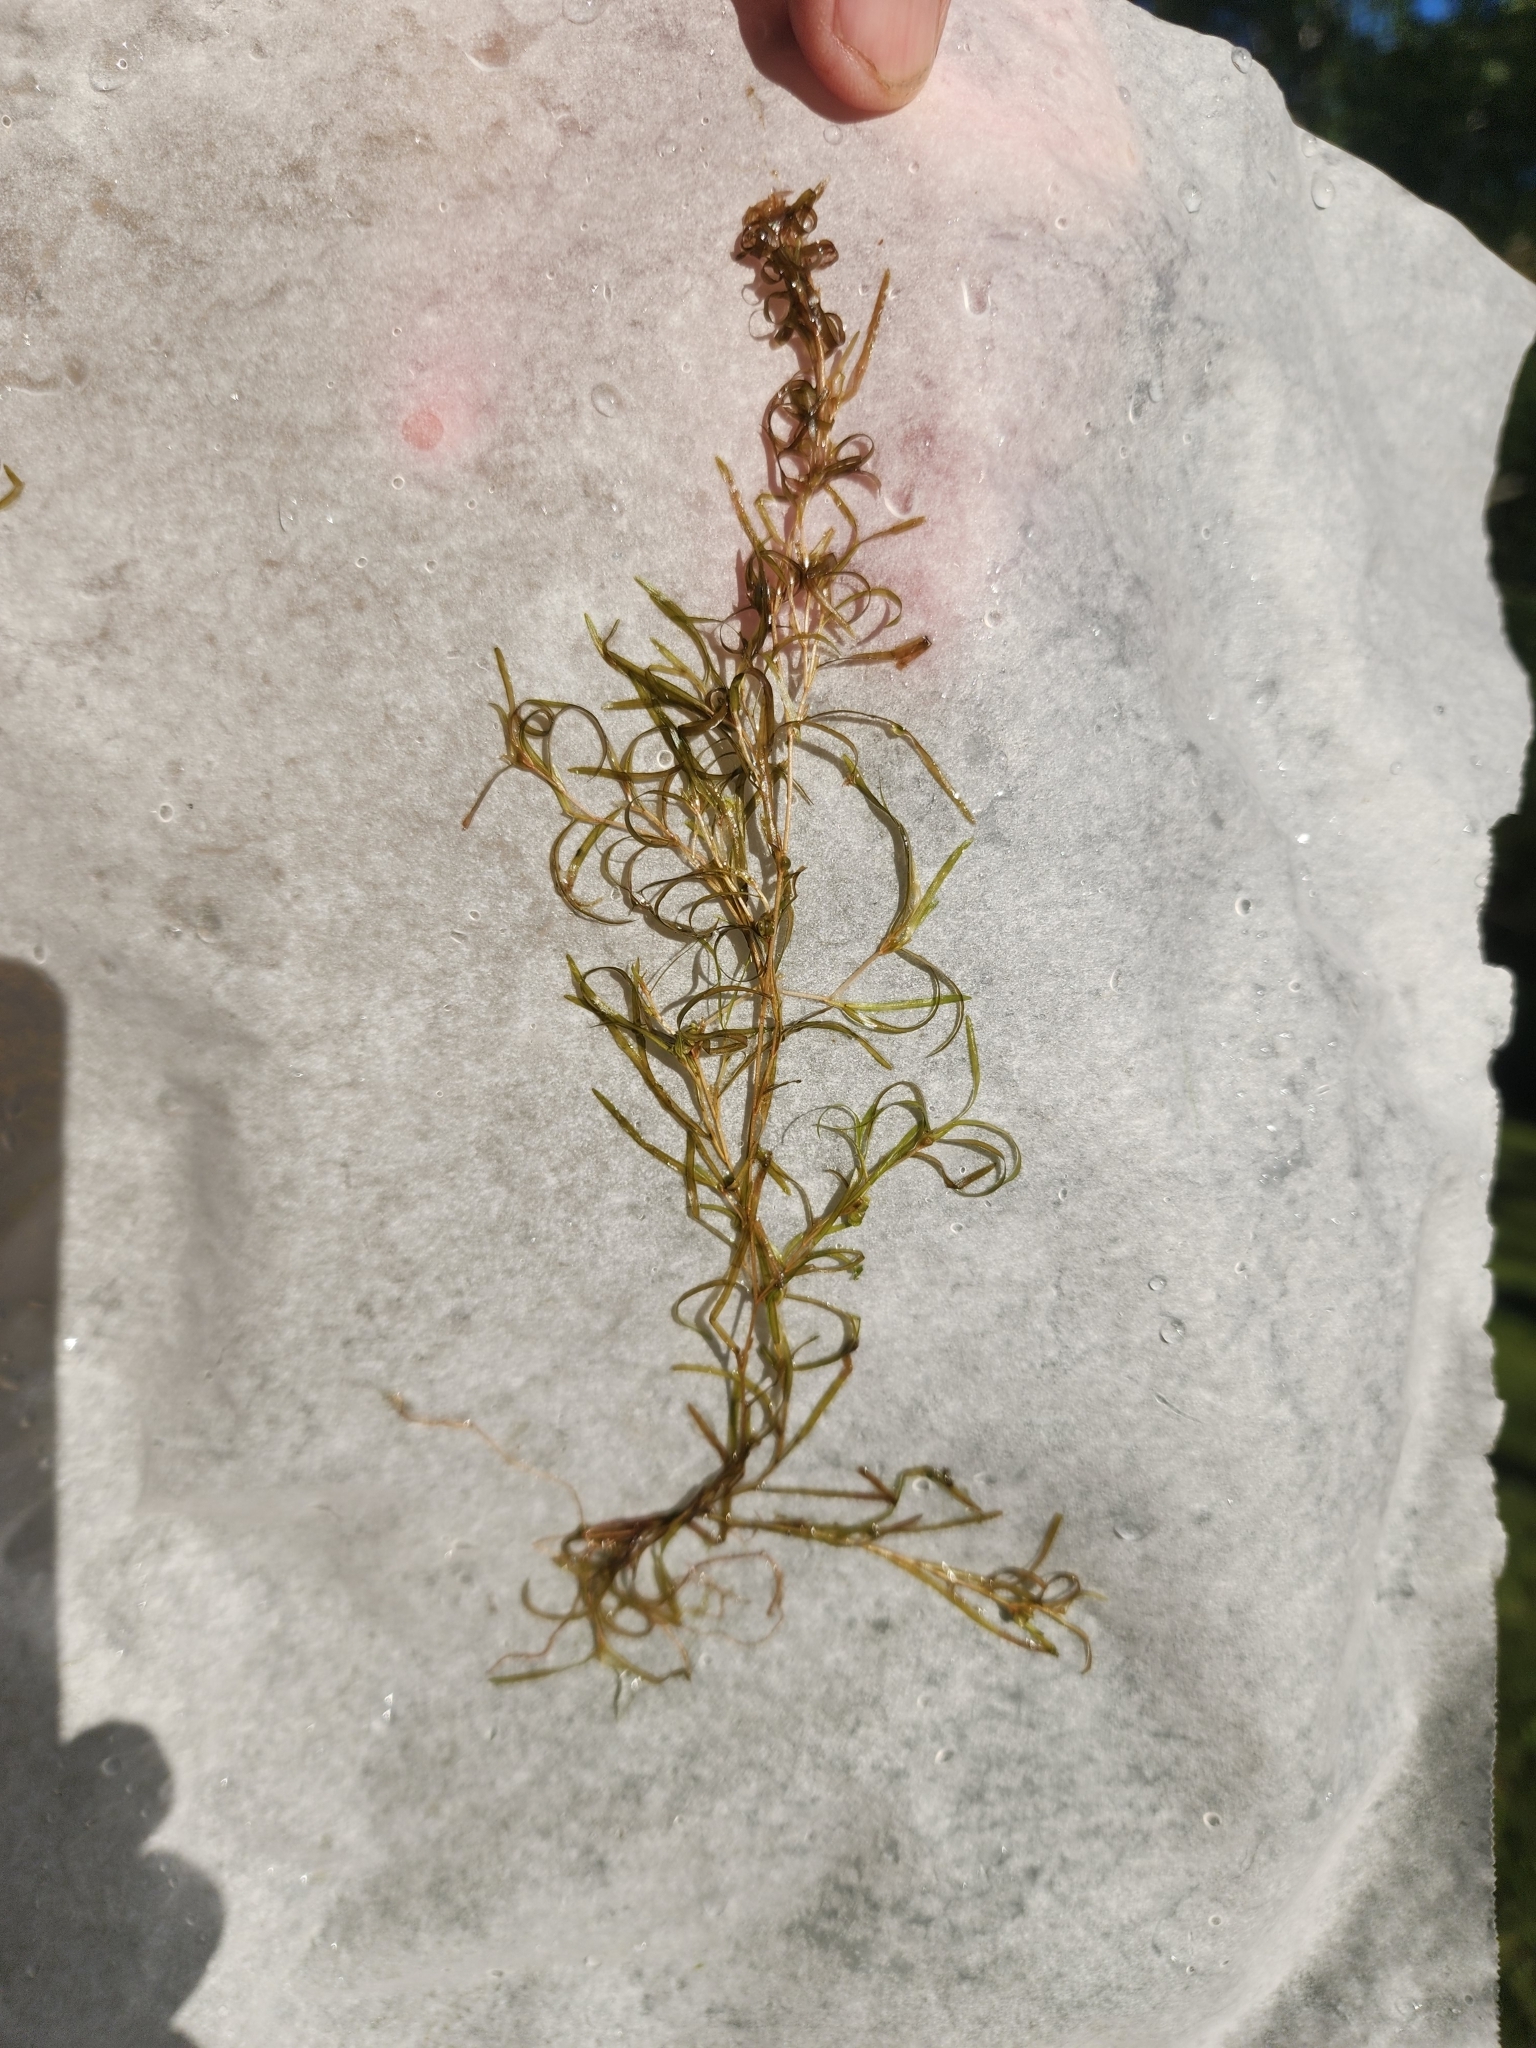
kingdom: Plantae
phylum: Tracheophyta
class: Liliopsida
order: Alismatales
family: Potamogetonaceae
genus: Potamogeton
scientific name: Potamogeton spirillus
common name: Northern snail-seed pondweed
